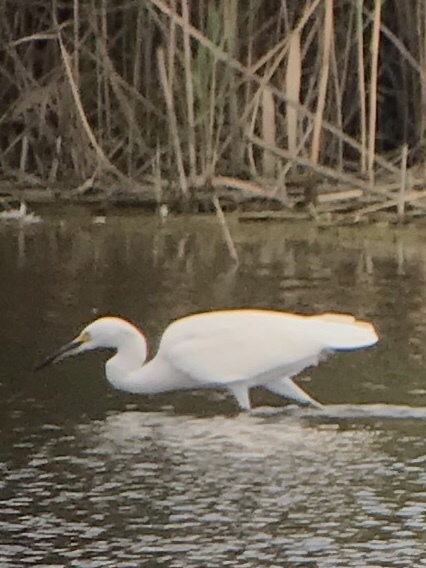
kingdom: Animalia
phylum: Chordata
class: Aves
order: Pelecaniformes
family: Ardeidae
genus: Egretta
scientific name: Egretta thula
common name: Snowy egret
